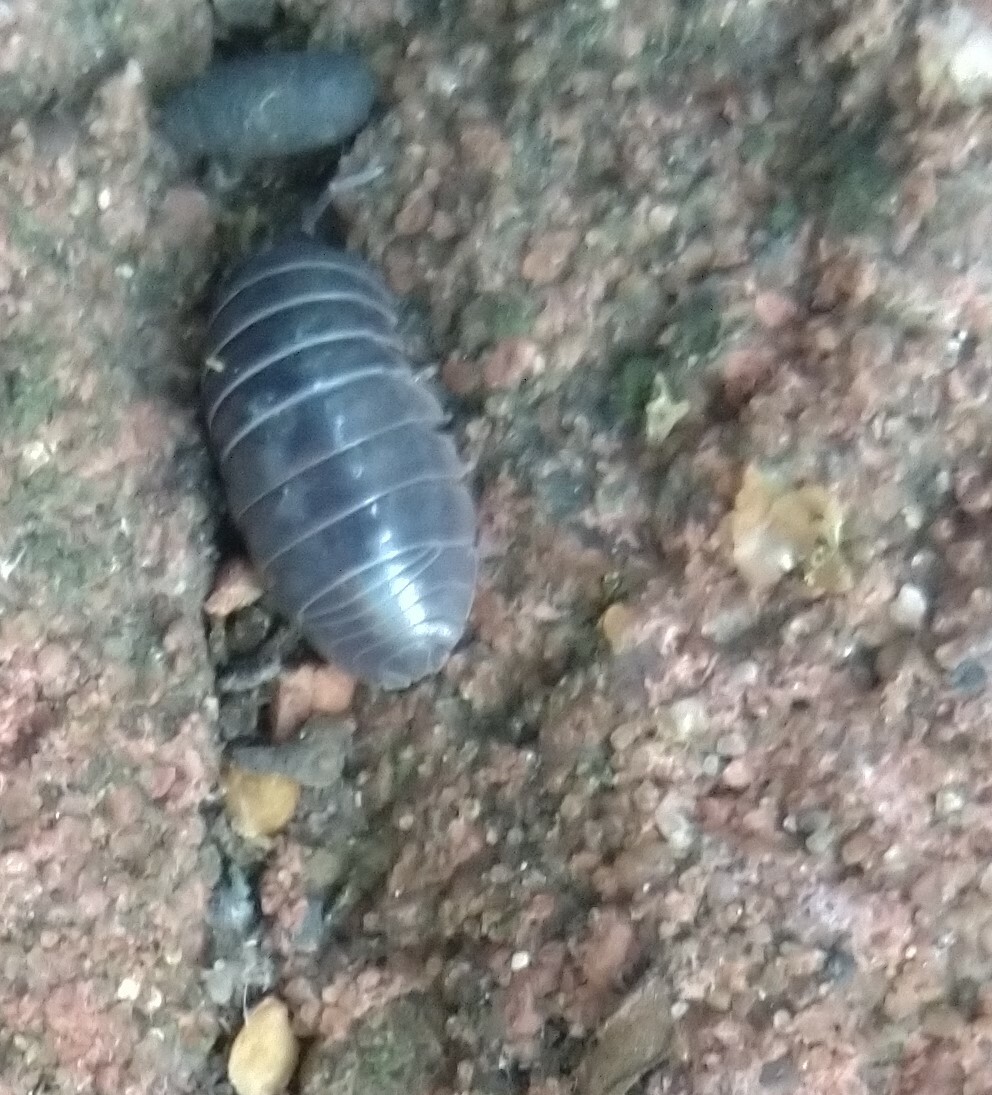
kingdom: Animalia
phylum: Arthropoda
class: Malacostraca
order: Isopoda
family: Armadillidiidae
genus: Armadillidium
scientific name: Armadillidium vulgare
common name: Common pill woodlouse
